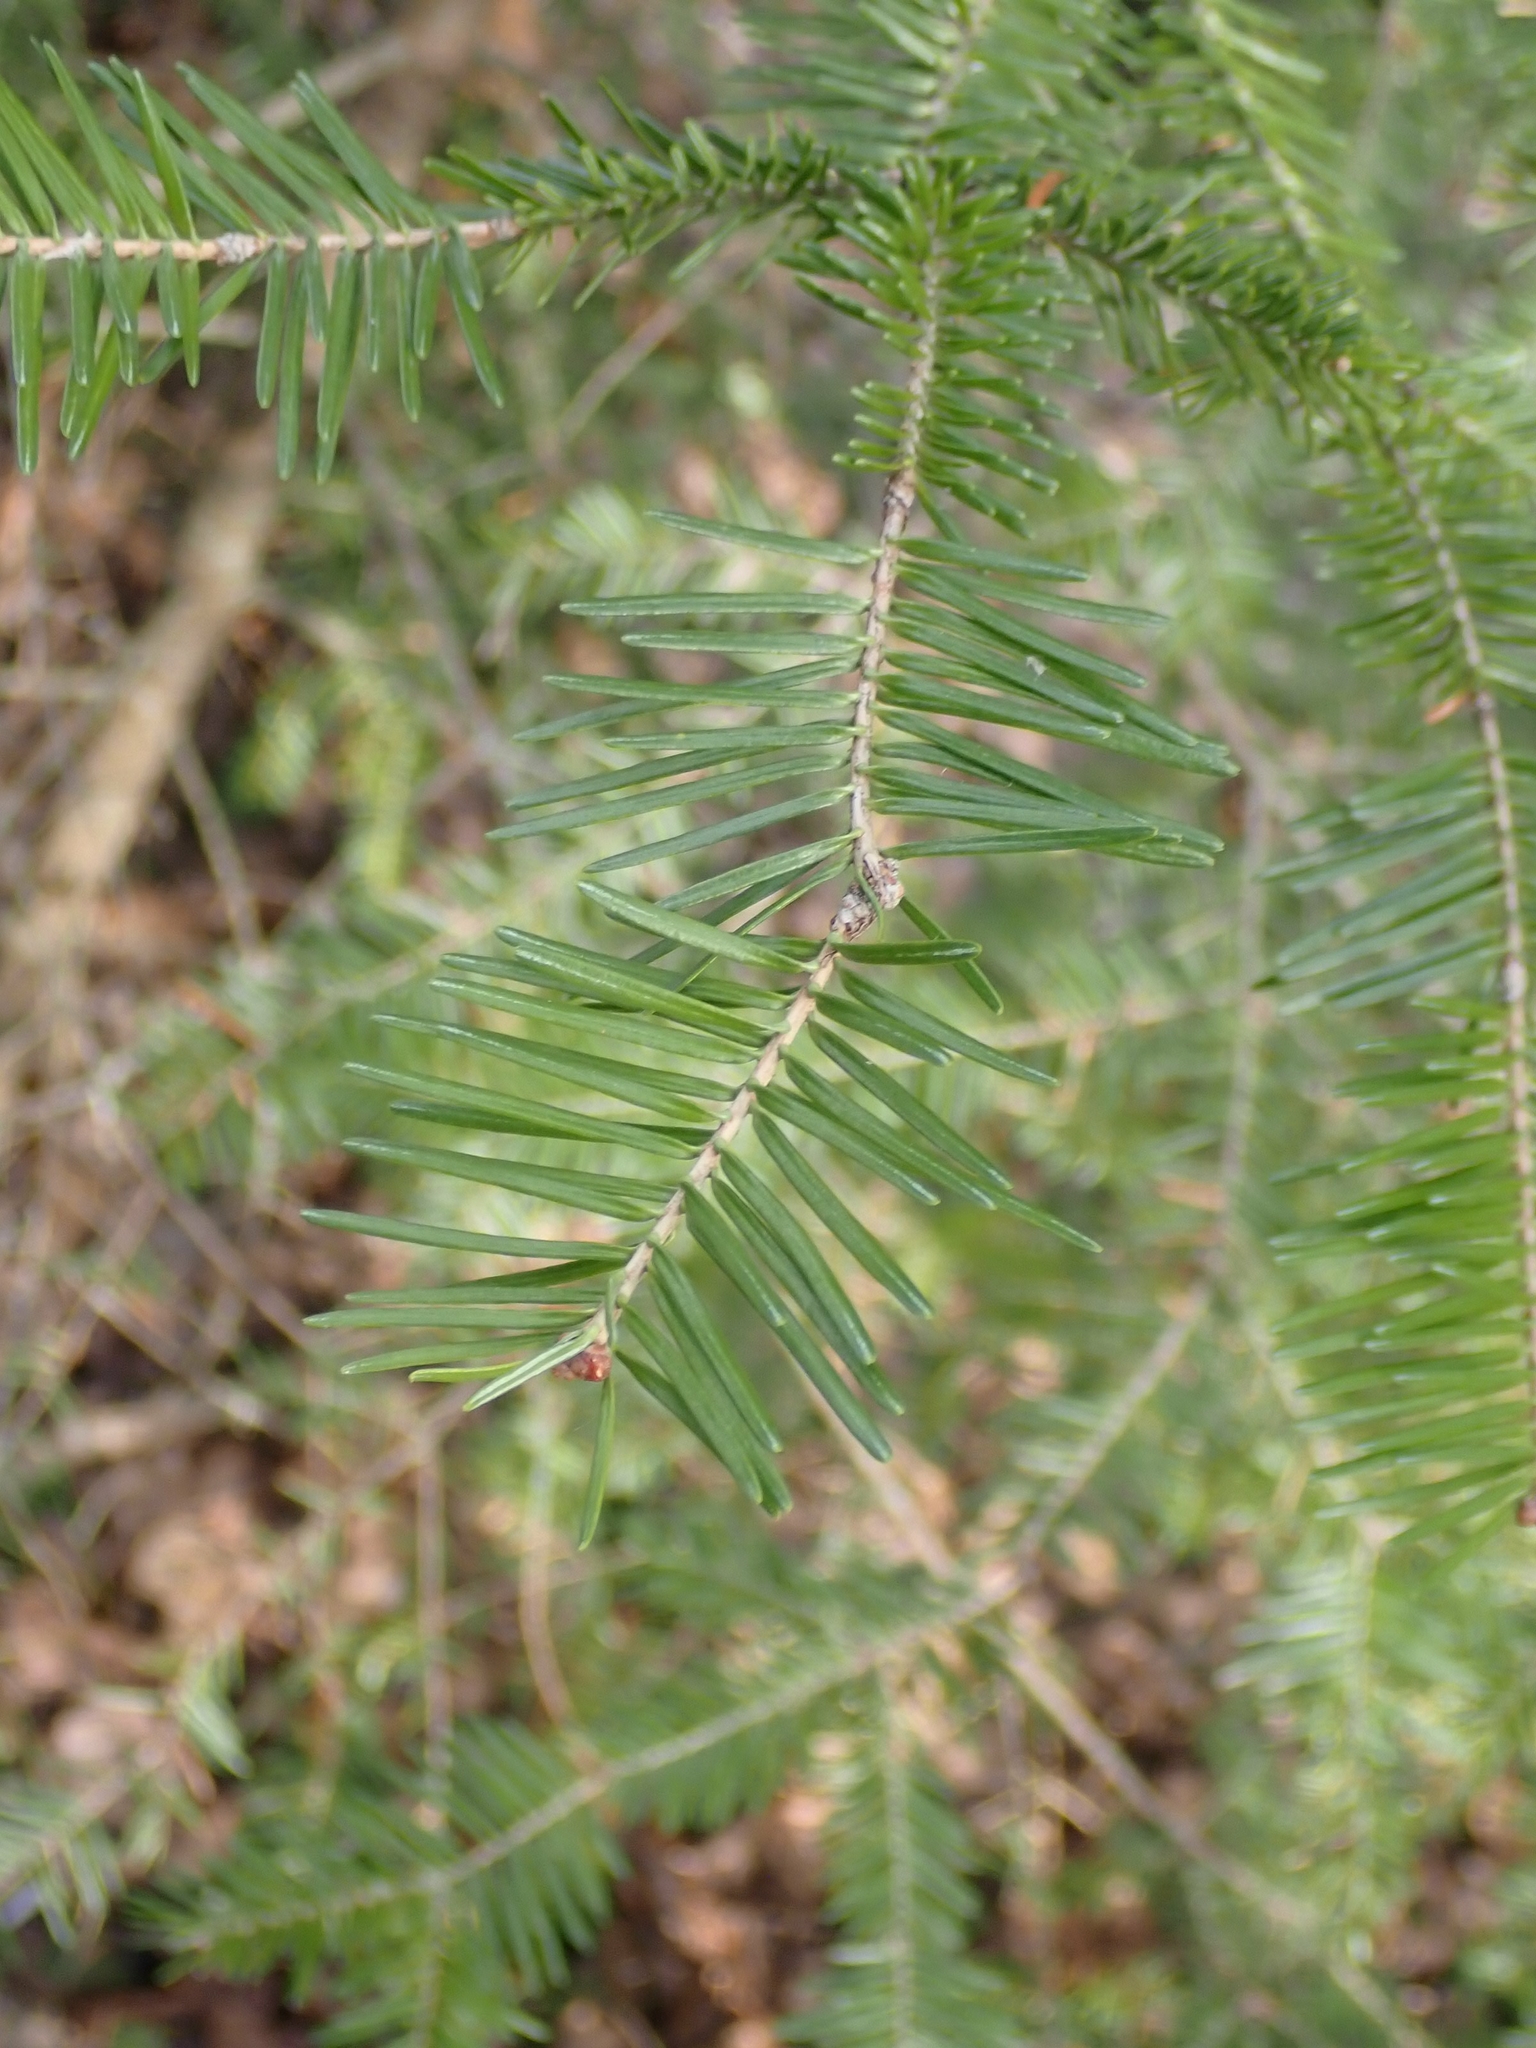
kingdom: Plantae
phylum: Tracheophyta
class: Pinopsida
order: Pinales
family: Pinaceae
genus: Abies
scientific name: Abies balsamea
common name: Balsam fir
